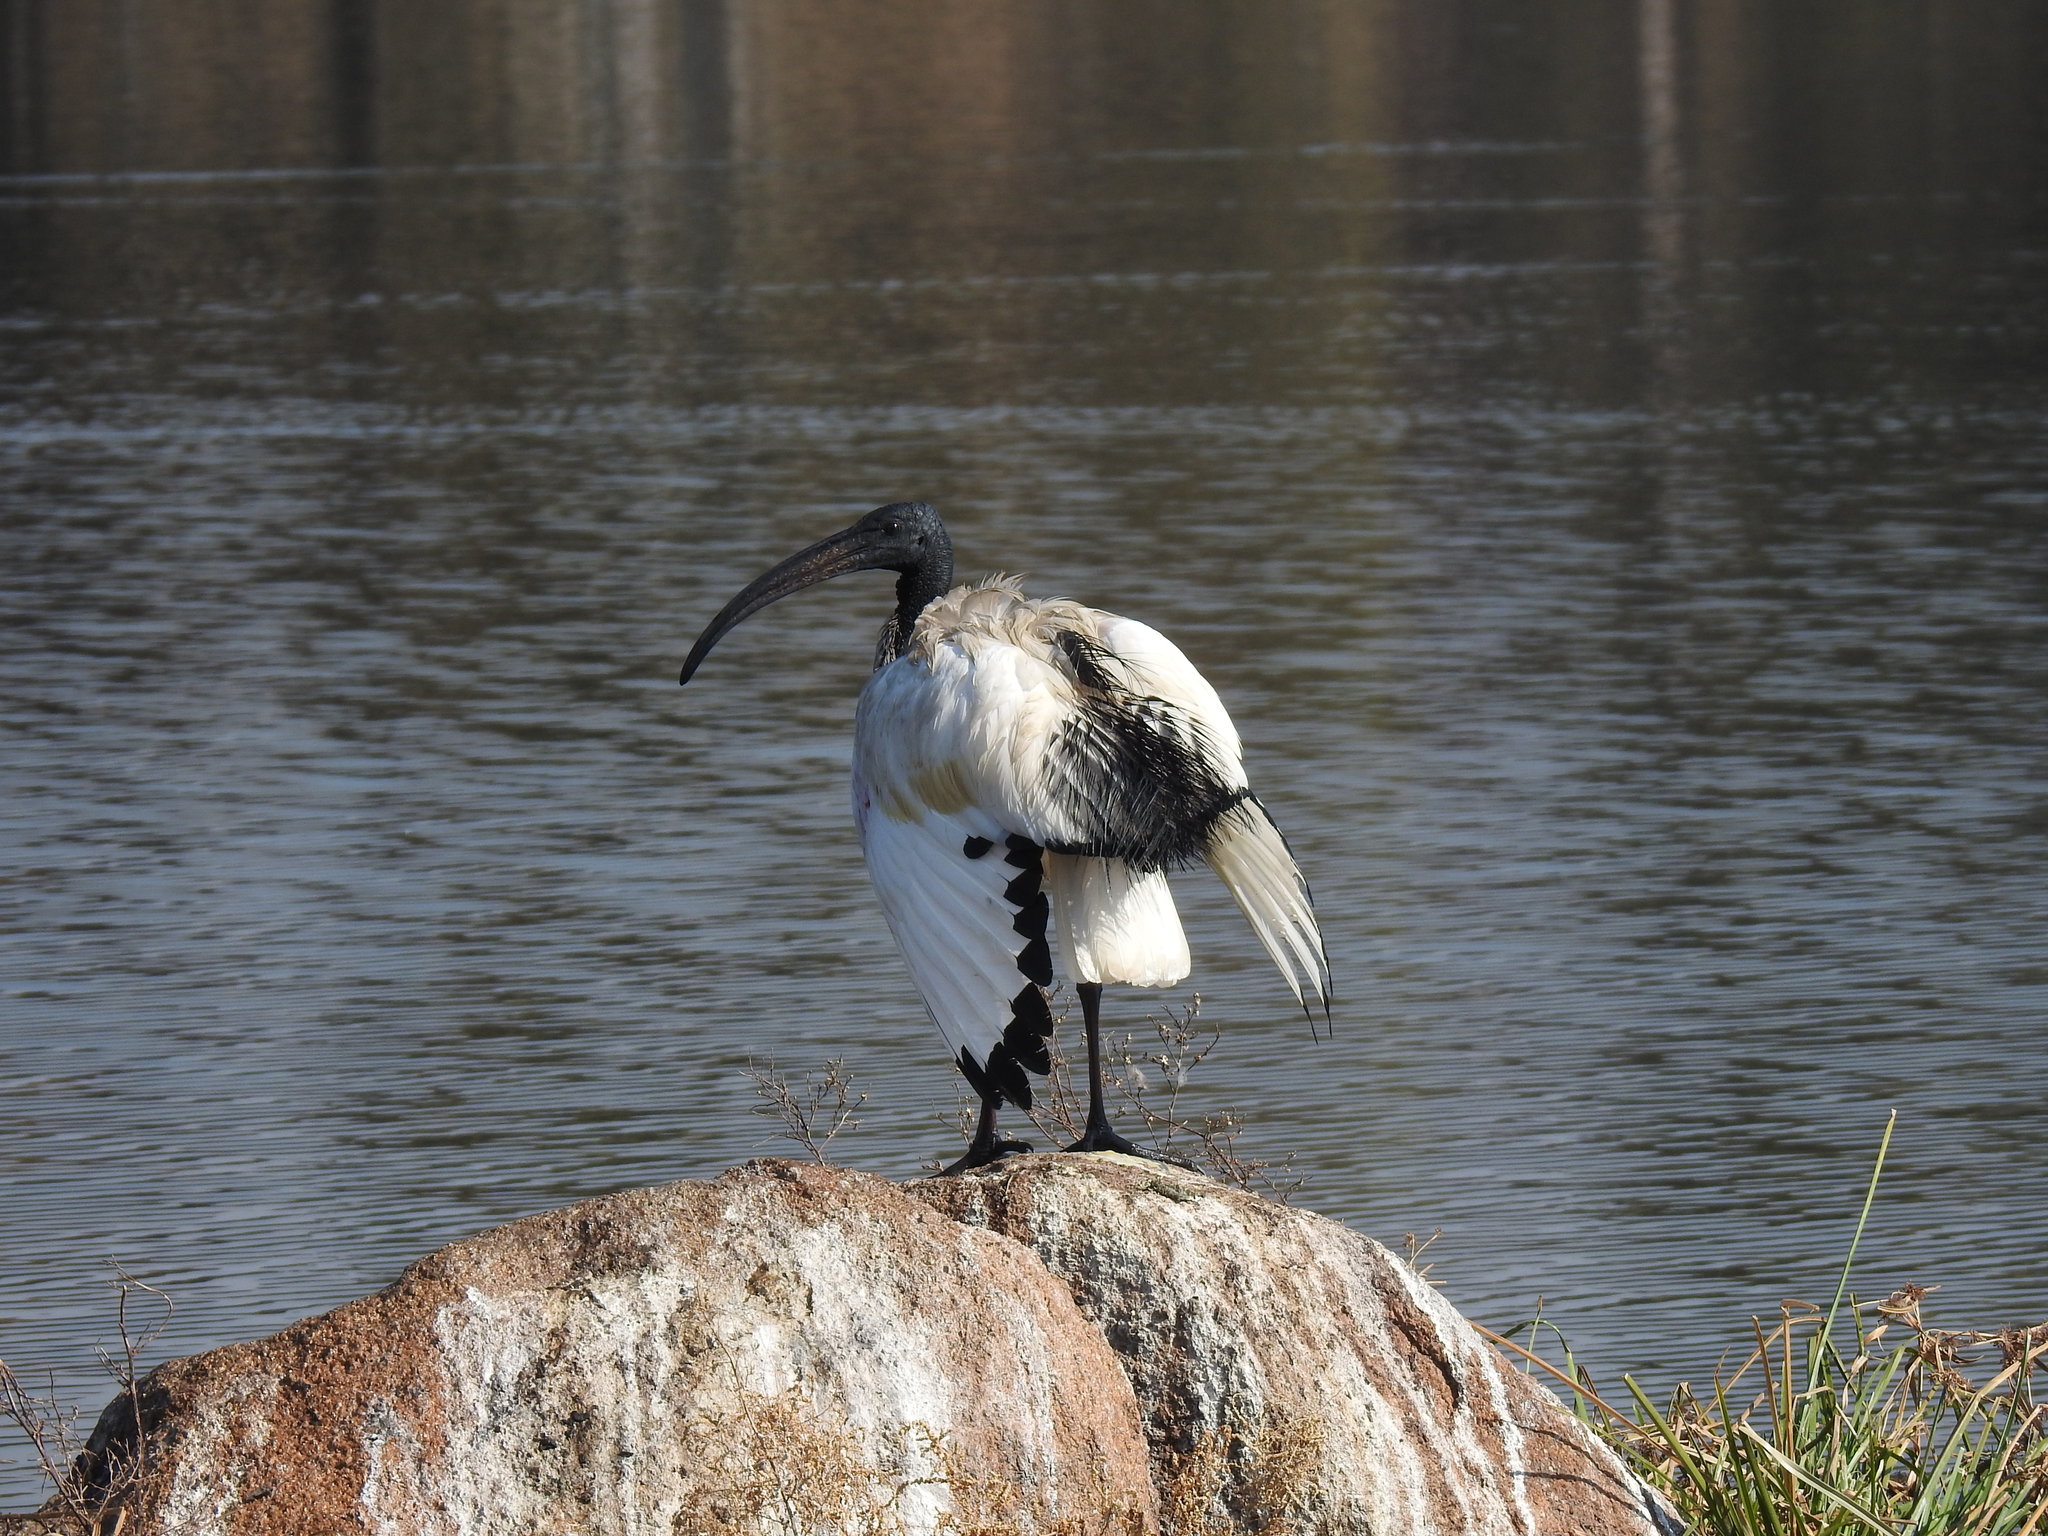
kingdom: Animalia
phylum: Chordata
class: Aves
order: Pelecaniformes
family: Threskiornithidae
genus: Threskiornis
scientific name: Threskiornis aethiopicus
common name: Sacred ibis
